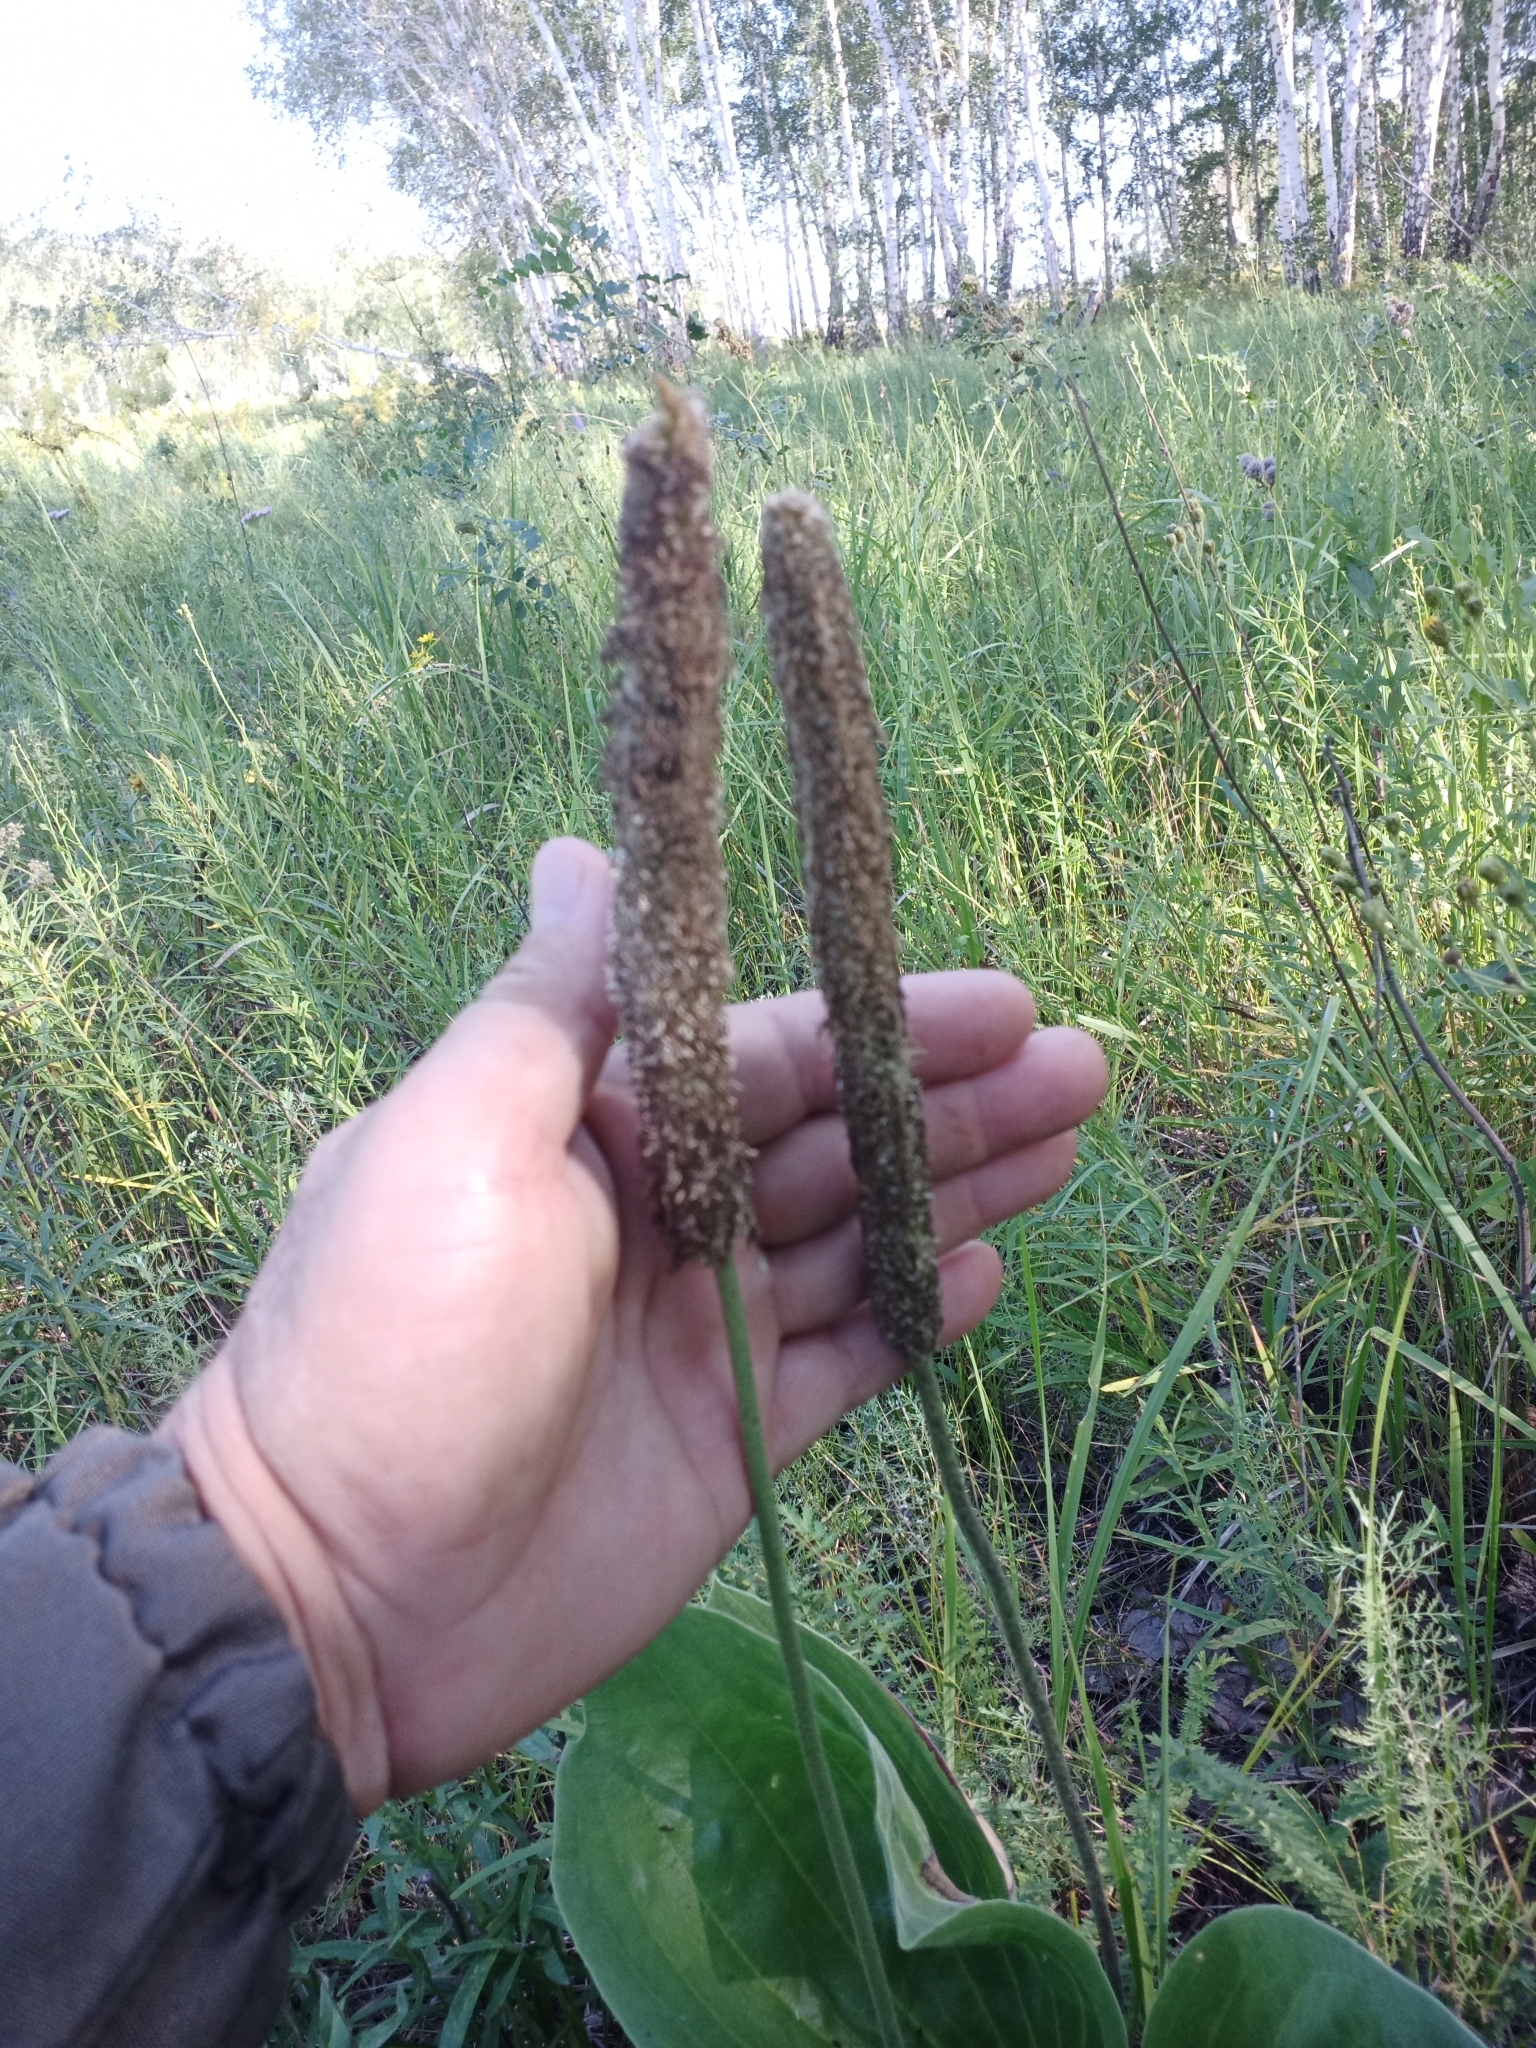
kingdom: Plantae
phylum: Tracheophyta
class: Magnoliopsida
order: Lamiales
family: Plantaginaceae
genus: Plantago
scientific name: Plantago maxima
